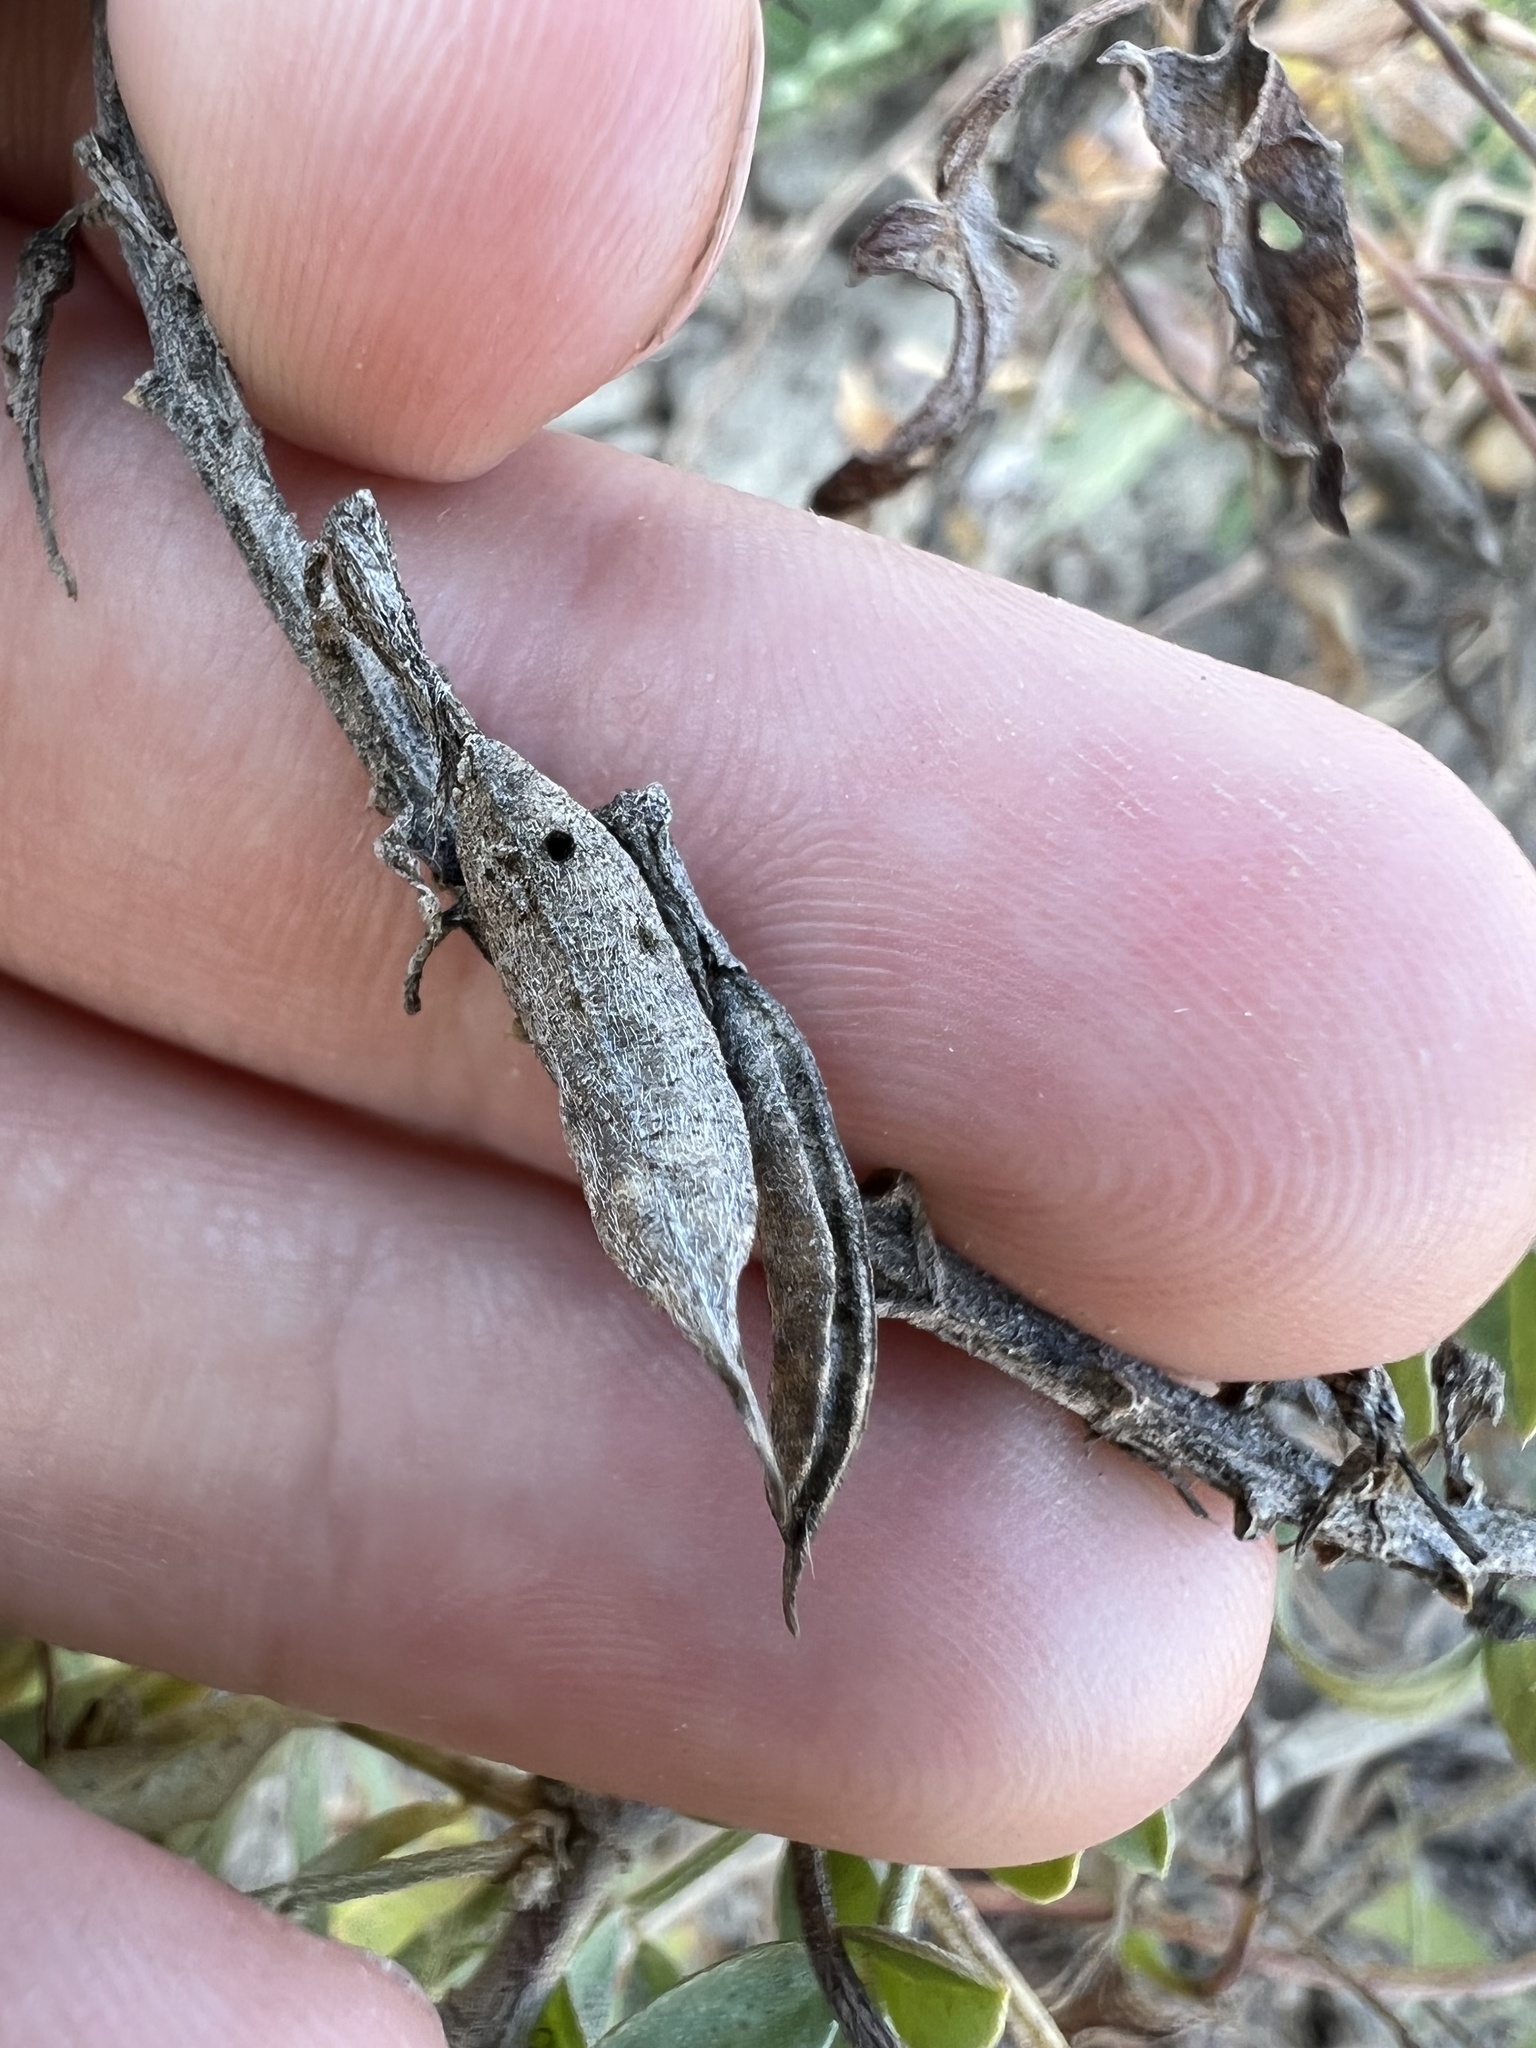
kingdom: Plantae
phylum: Tracheophyta
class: Magnoliopsida
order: Fabales
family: Fabaceae
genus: Astragalus
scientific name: Astragalus bisulcatus
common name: Two-groove milk-vetch
